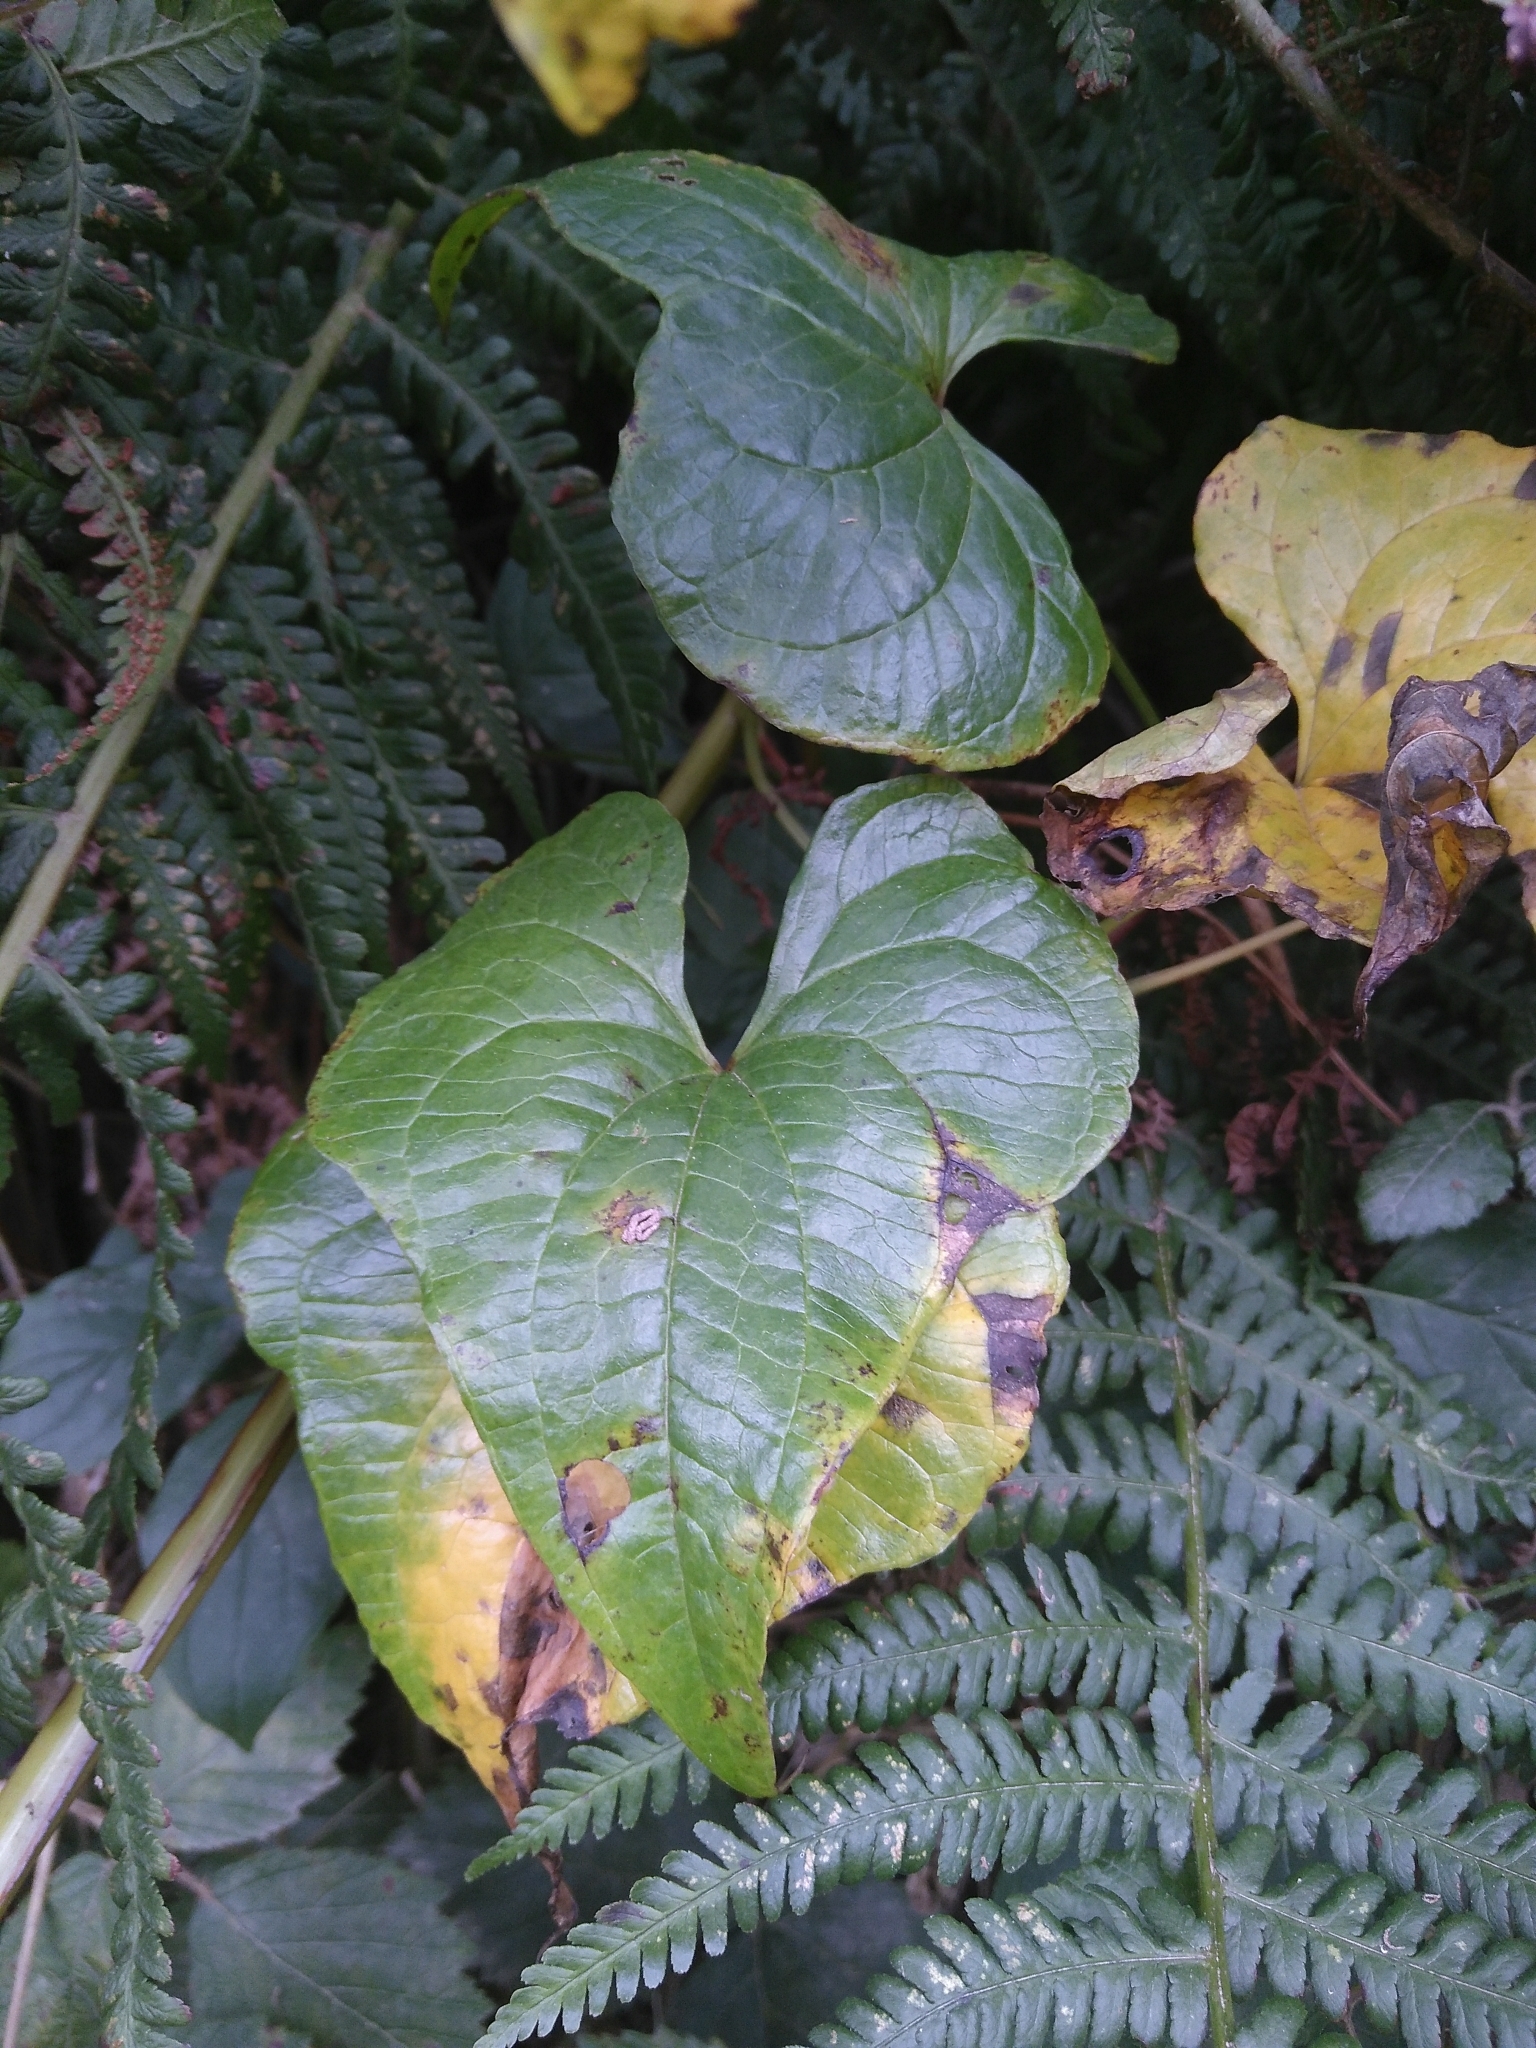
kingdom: Plantae
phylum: Tracheophyta
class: Liliopsida
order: Dioscoreales
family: Dioscoreaceae
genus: Dioscorea
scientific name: Dioscorea communis
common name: Black-bindweed
